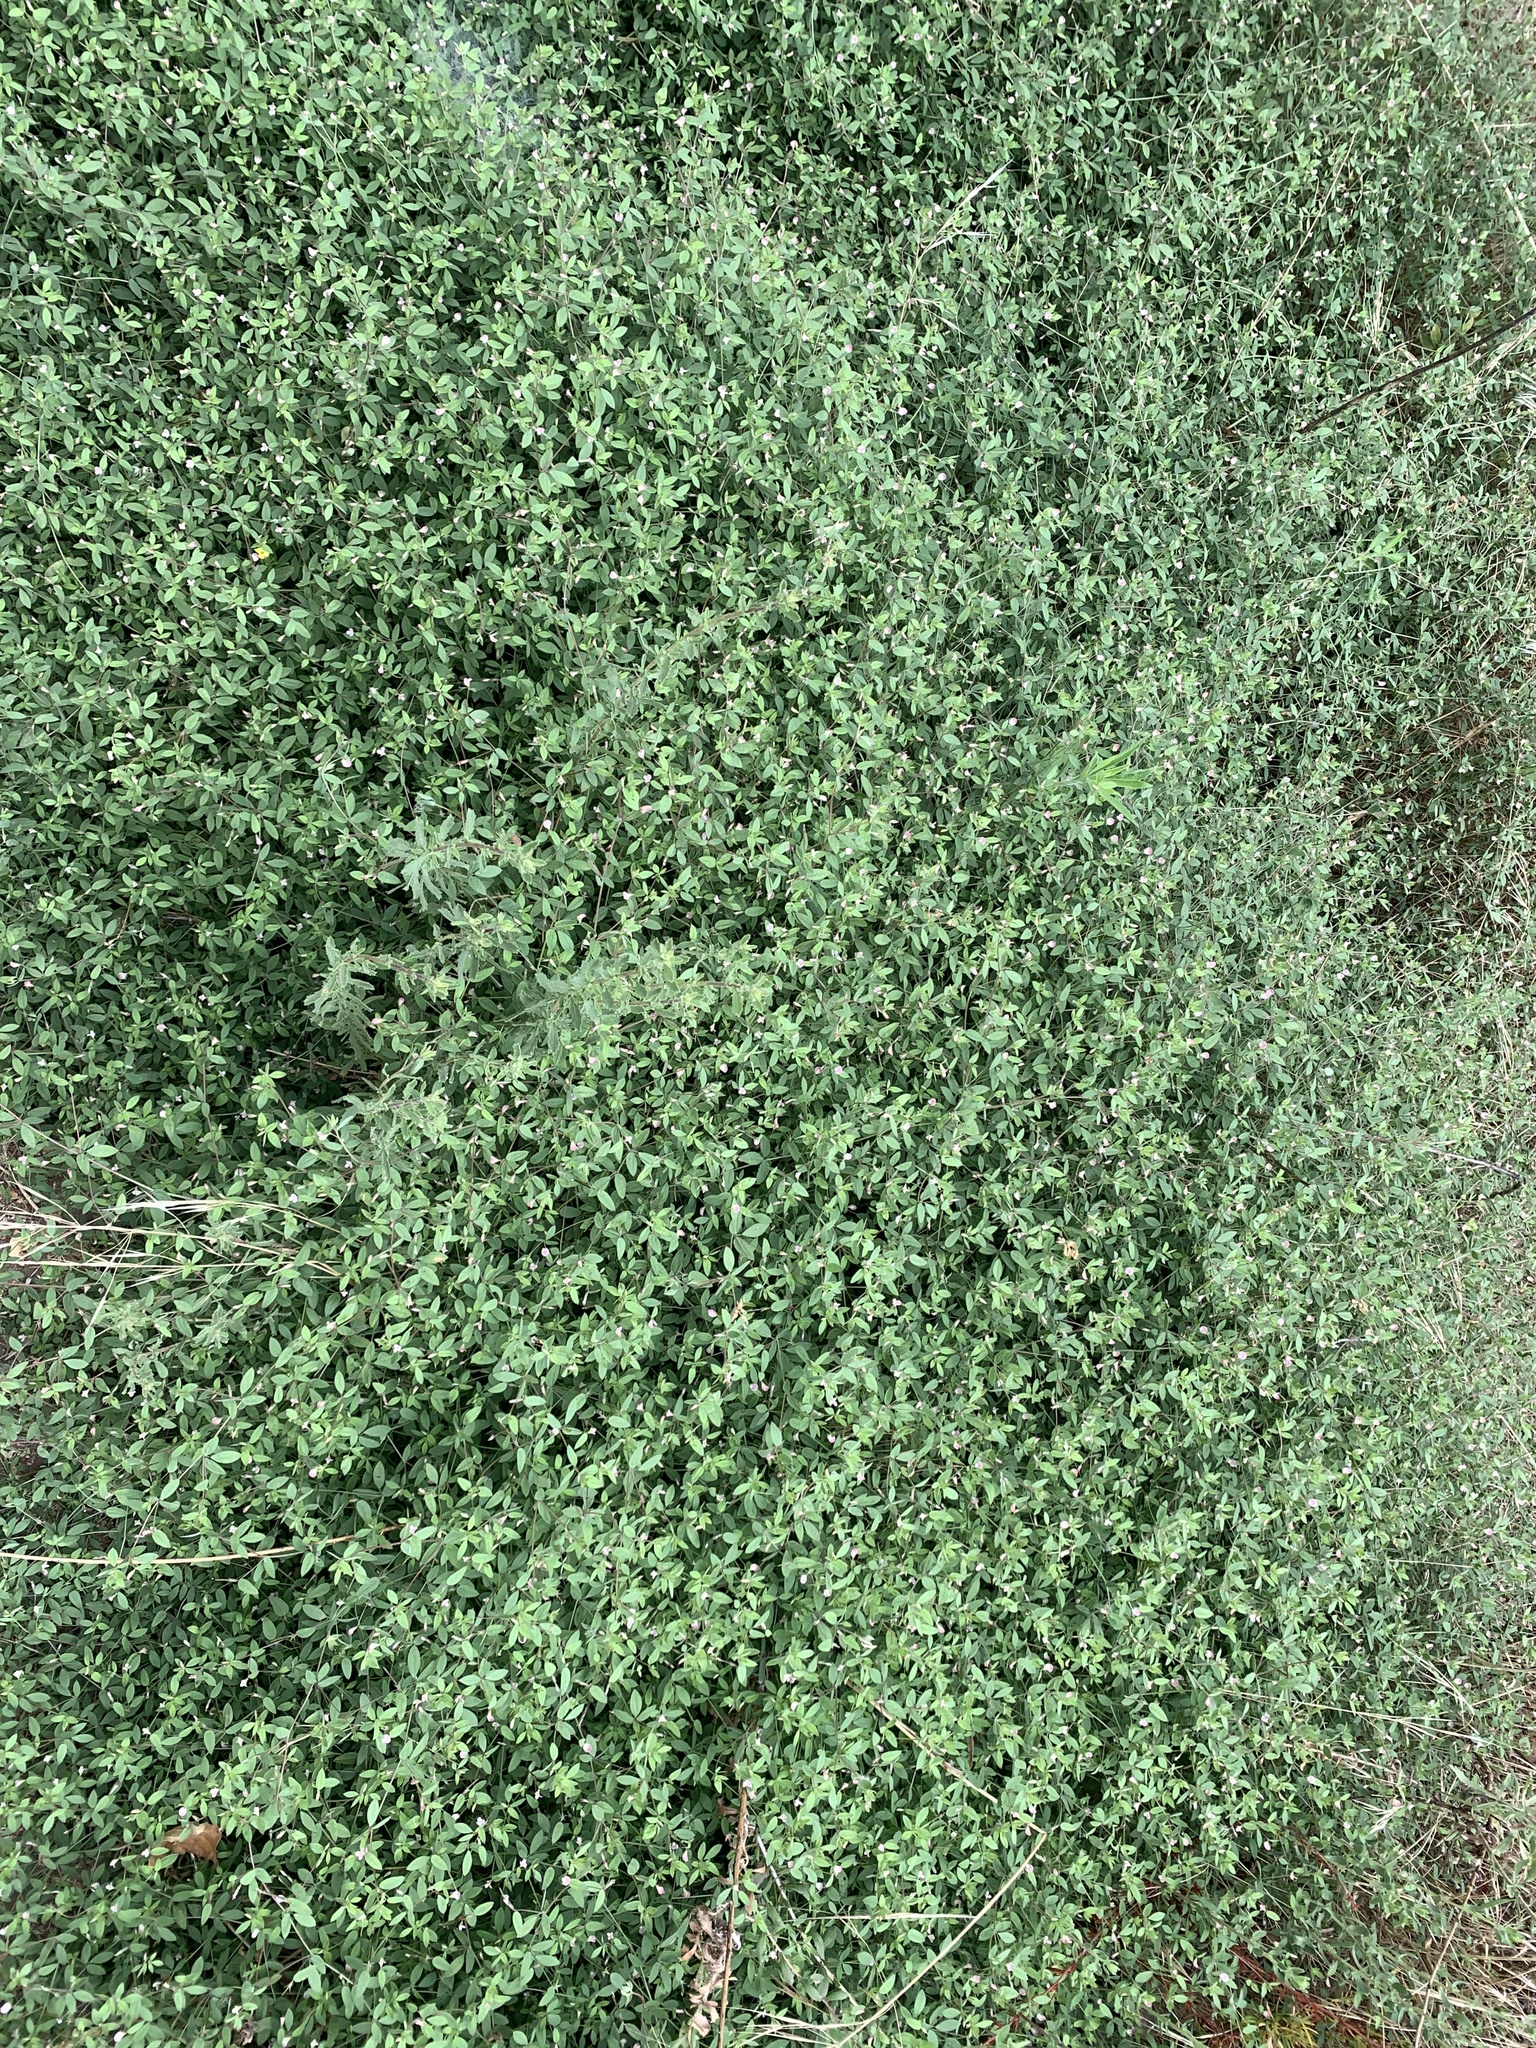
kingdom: Plantae
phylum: Tracheophyta
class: Magnoliopsida
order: Fabales
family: Fabaceae
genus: Acmispon
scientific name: Acmispon americanus
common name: American bird's-foot trefoil
